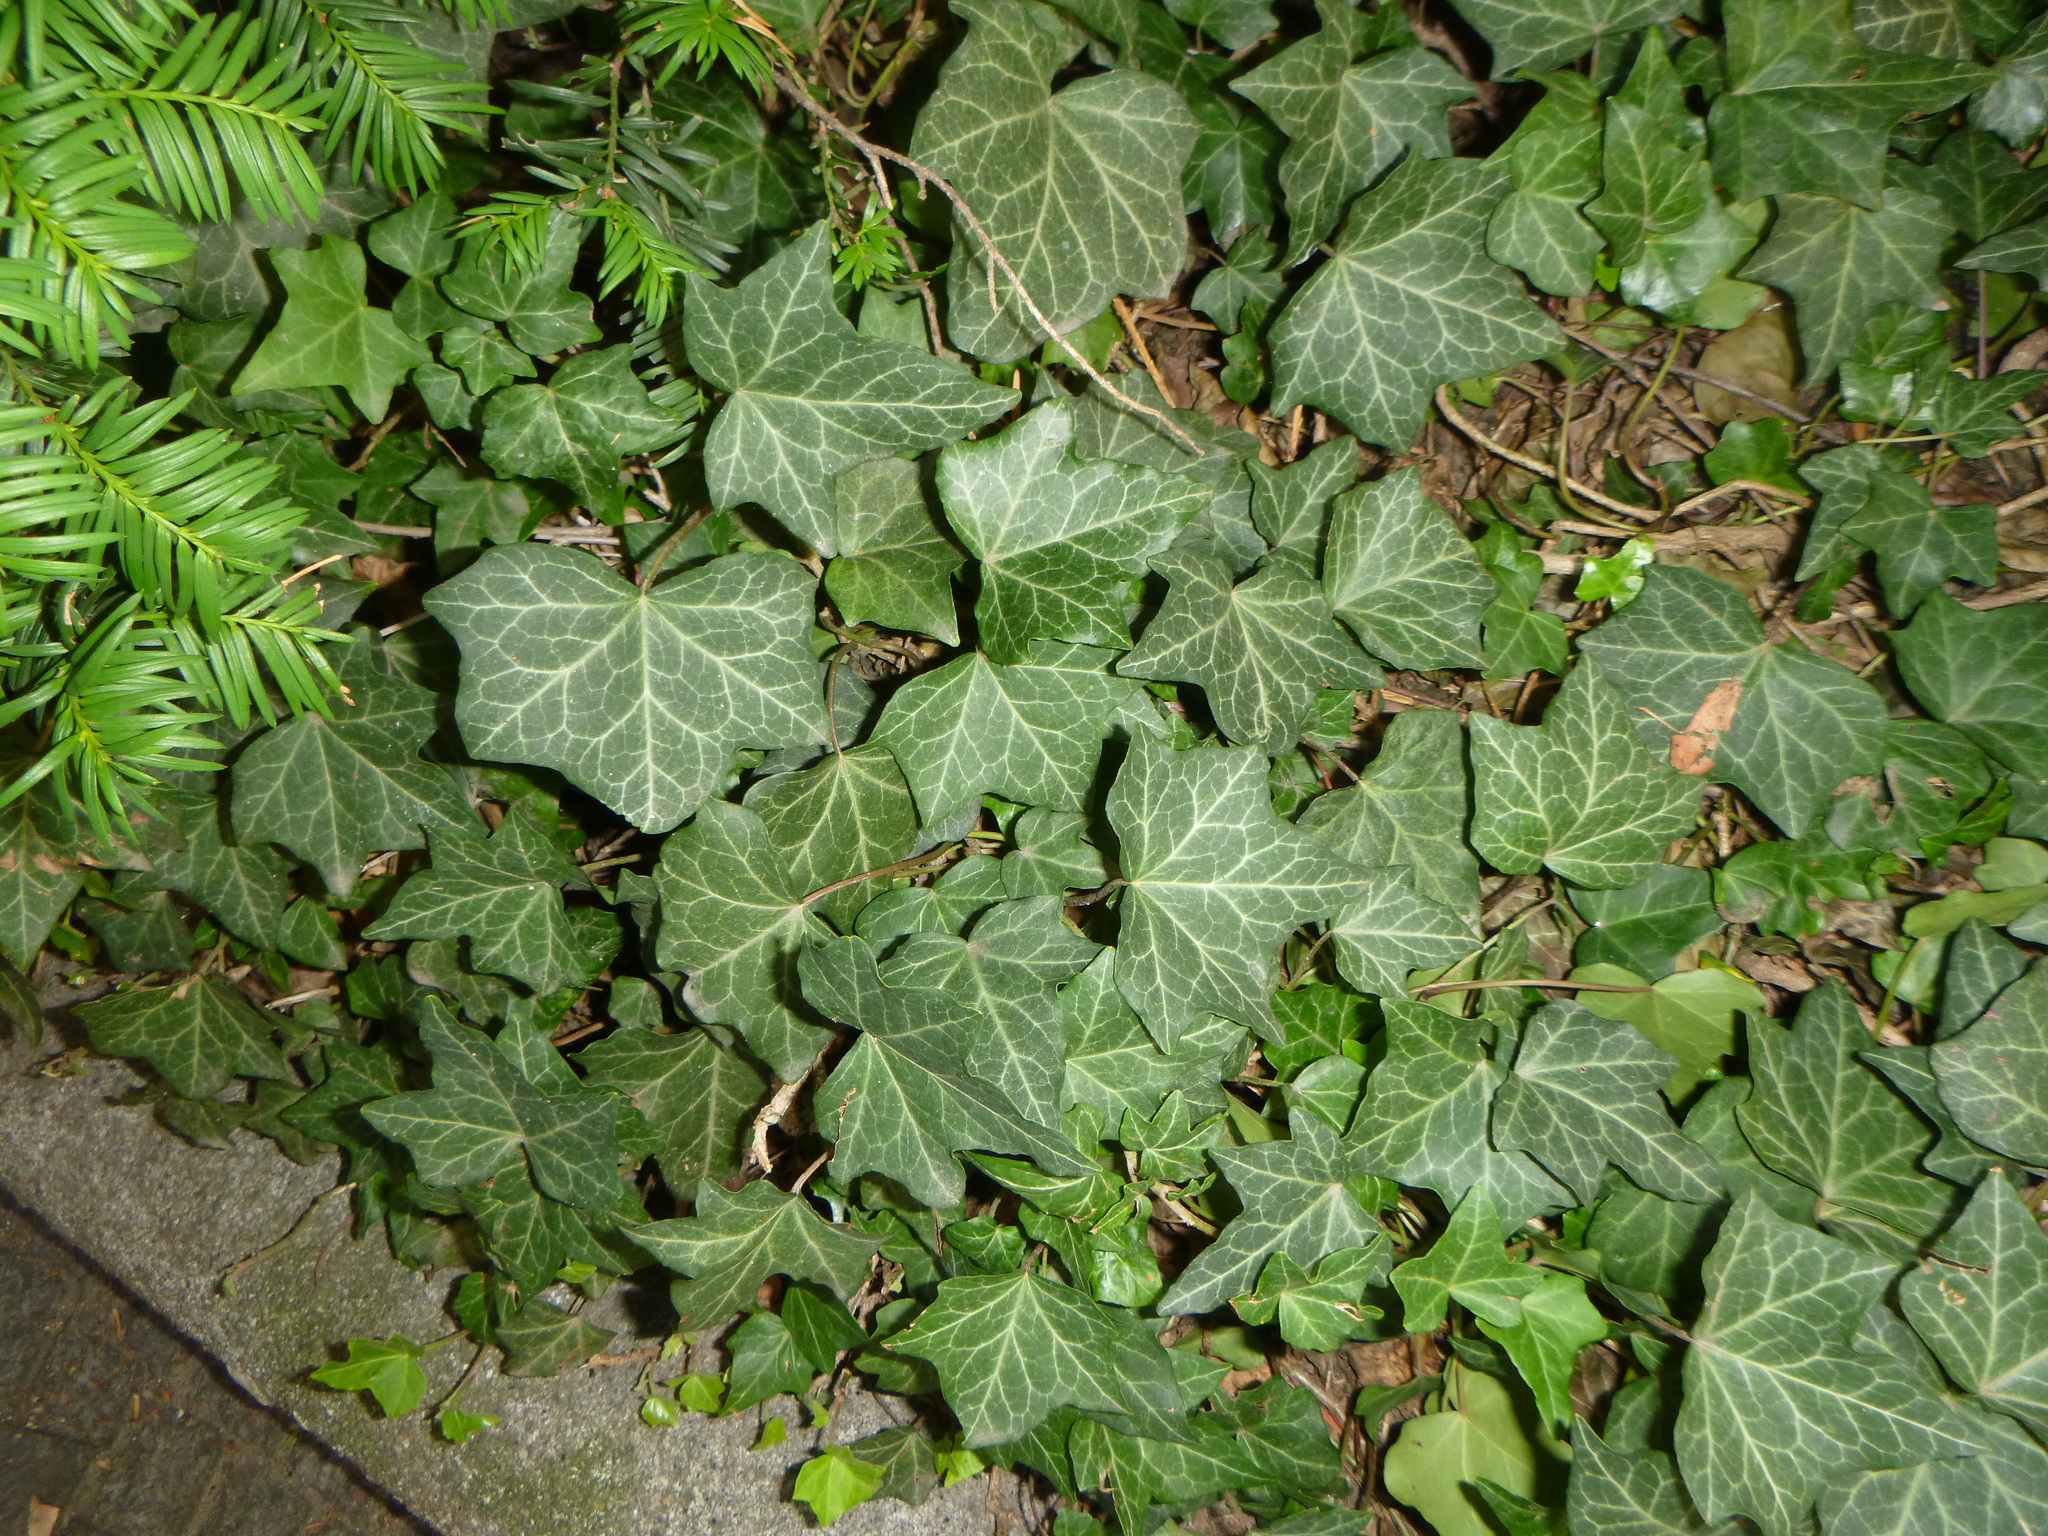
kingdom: Plantae
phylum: Tracheophyta
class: Magnoliopsida
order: Apiales
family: Araliaceae
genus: Hedera
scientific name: Hedera helix
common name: Ivy
